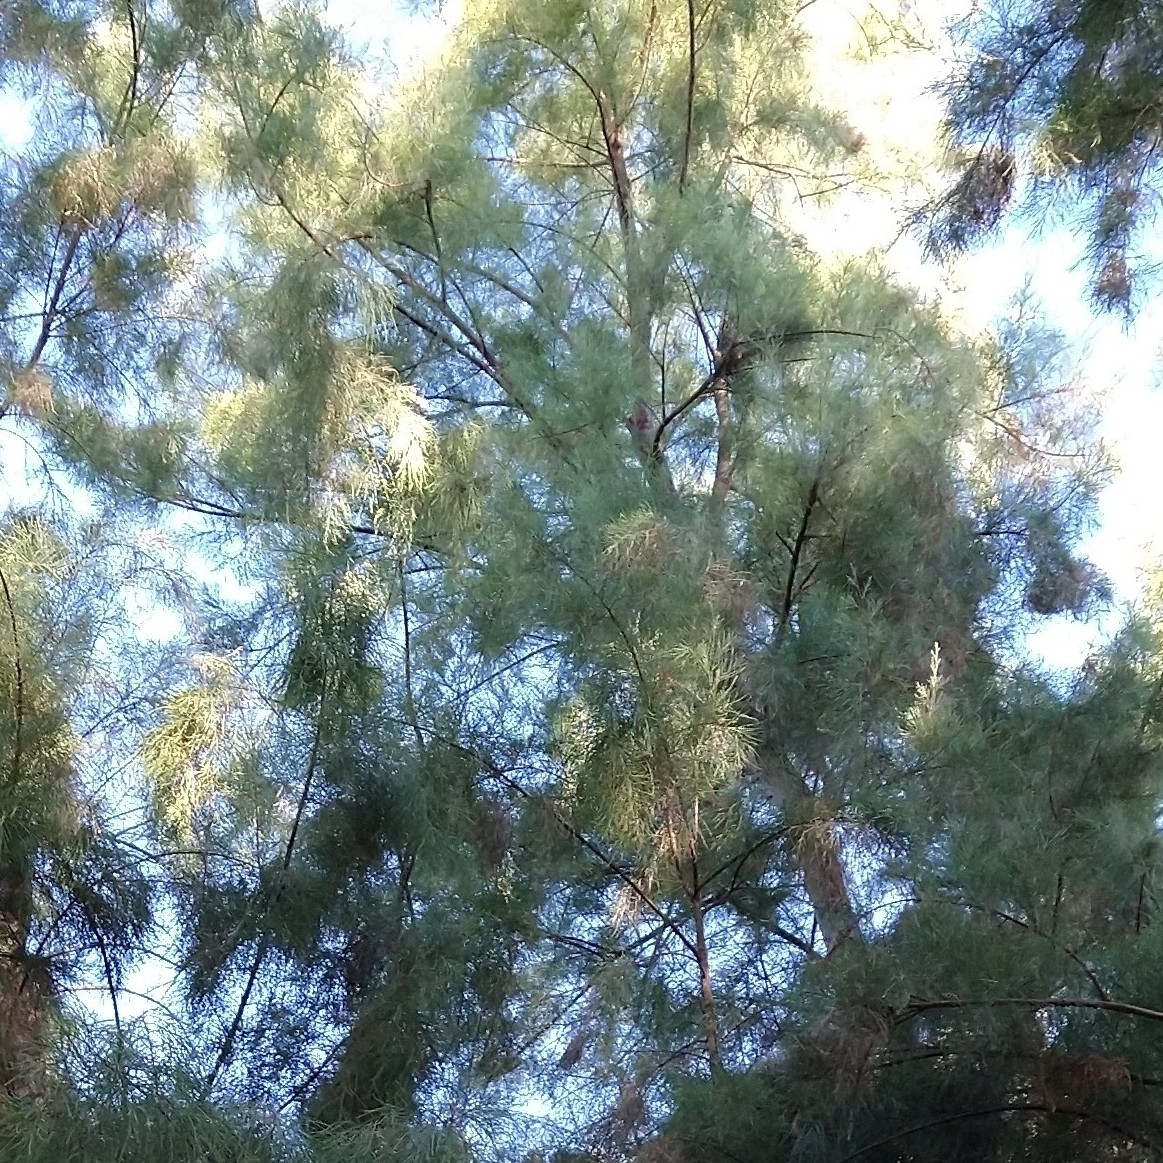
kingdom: Plantae
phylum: Tracheophyta
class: Magnoliopsida
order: Caryophyllales
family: Tamaricaceae
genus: Tamarix
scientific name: Tamarix
